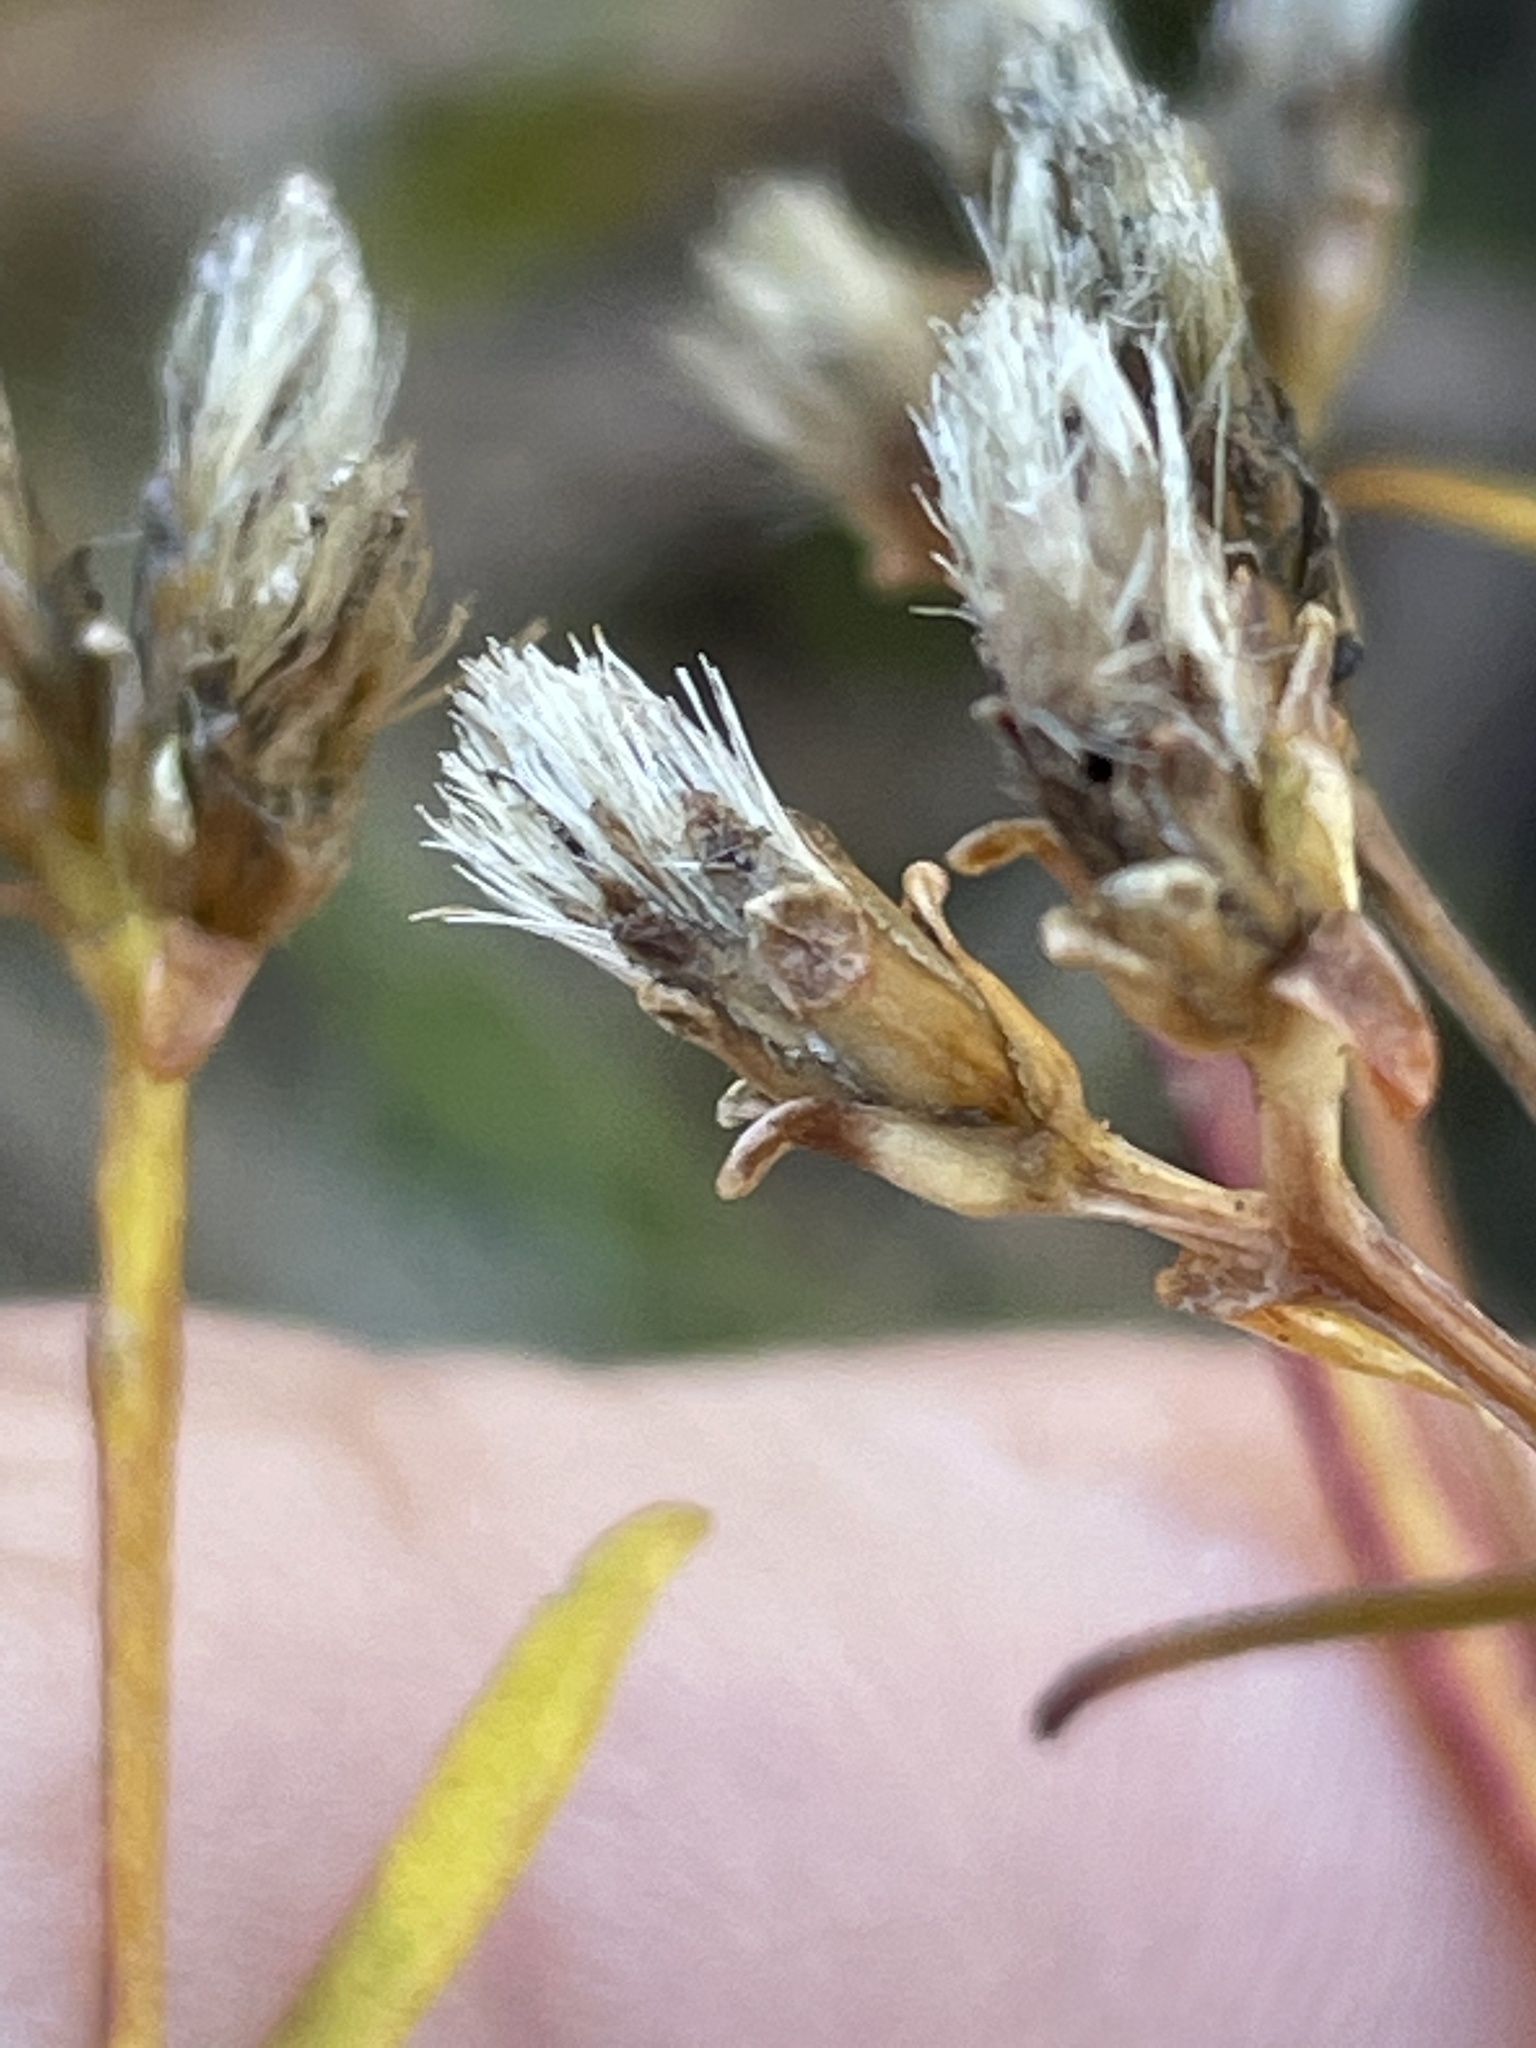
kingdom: Plantae
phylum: Tracheophyta
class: Magnoliopsida
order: Asterales
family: Asteraceae
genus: Sericocarpus
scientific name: Sericocarpus linifolius
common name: Narrow-leaf aster
